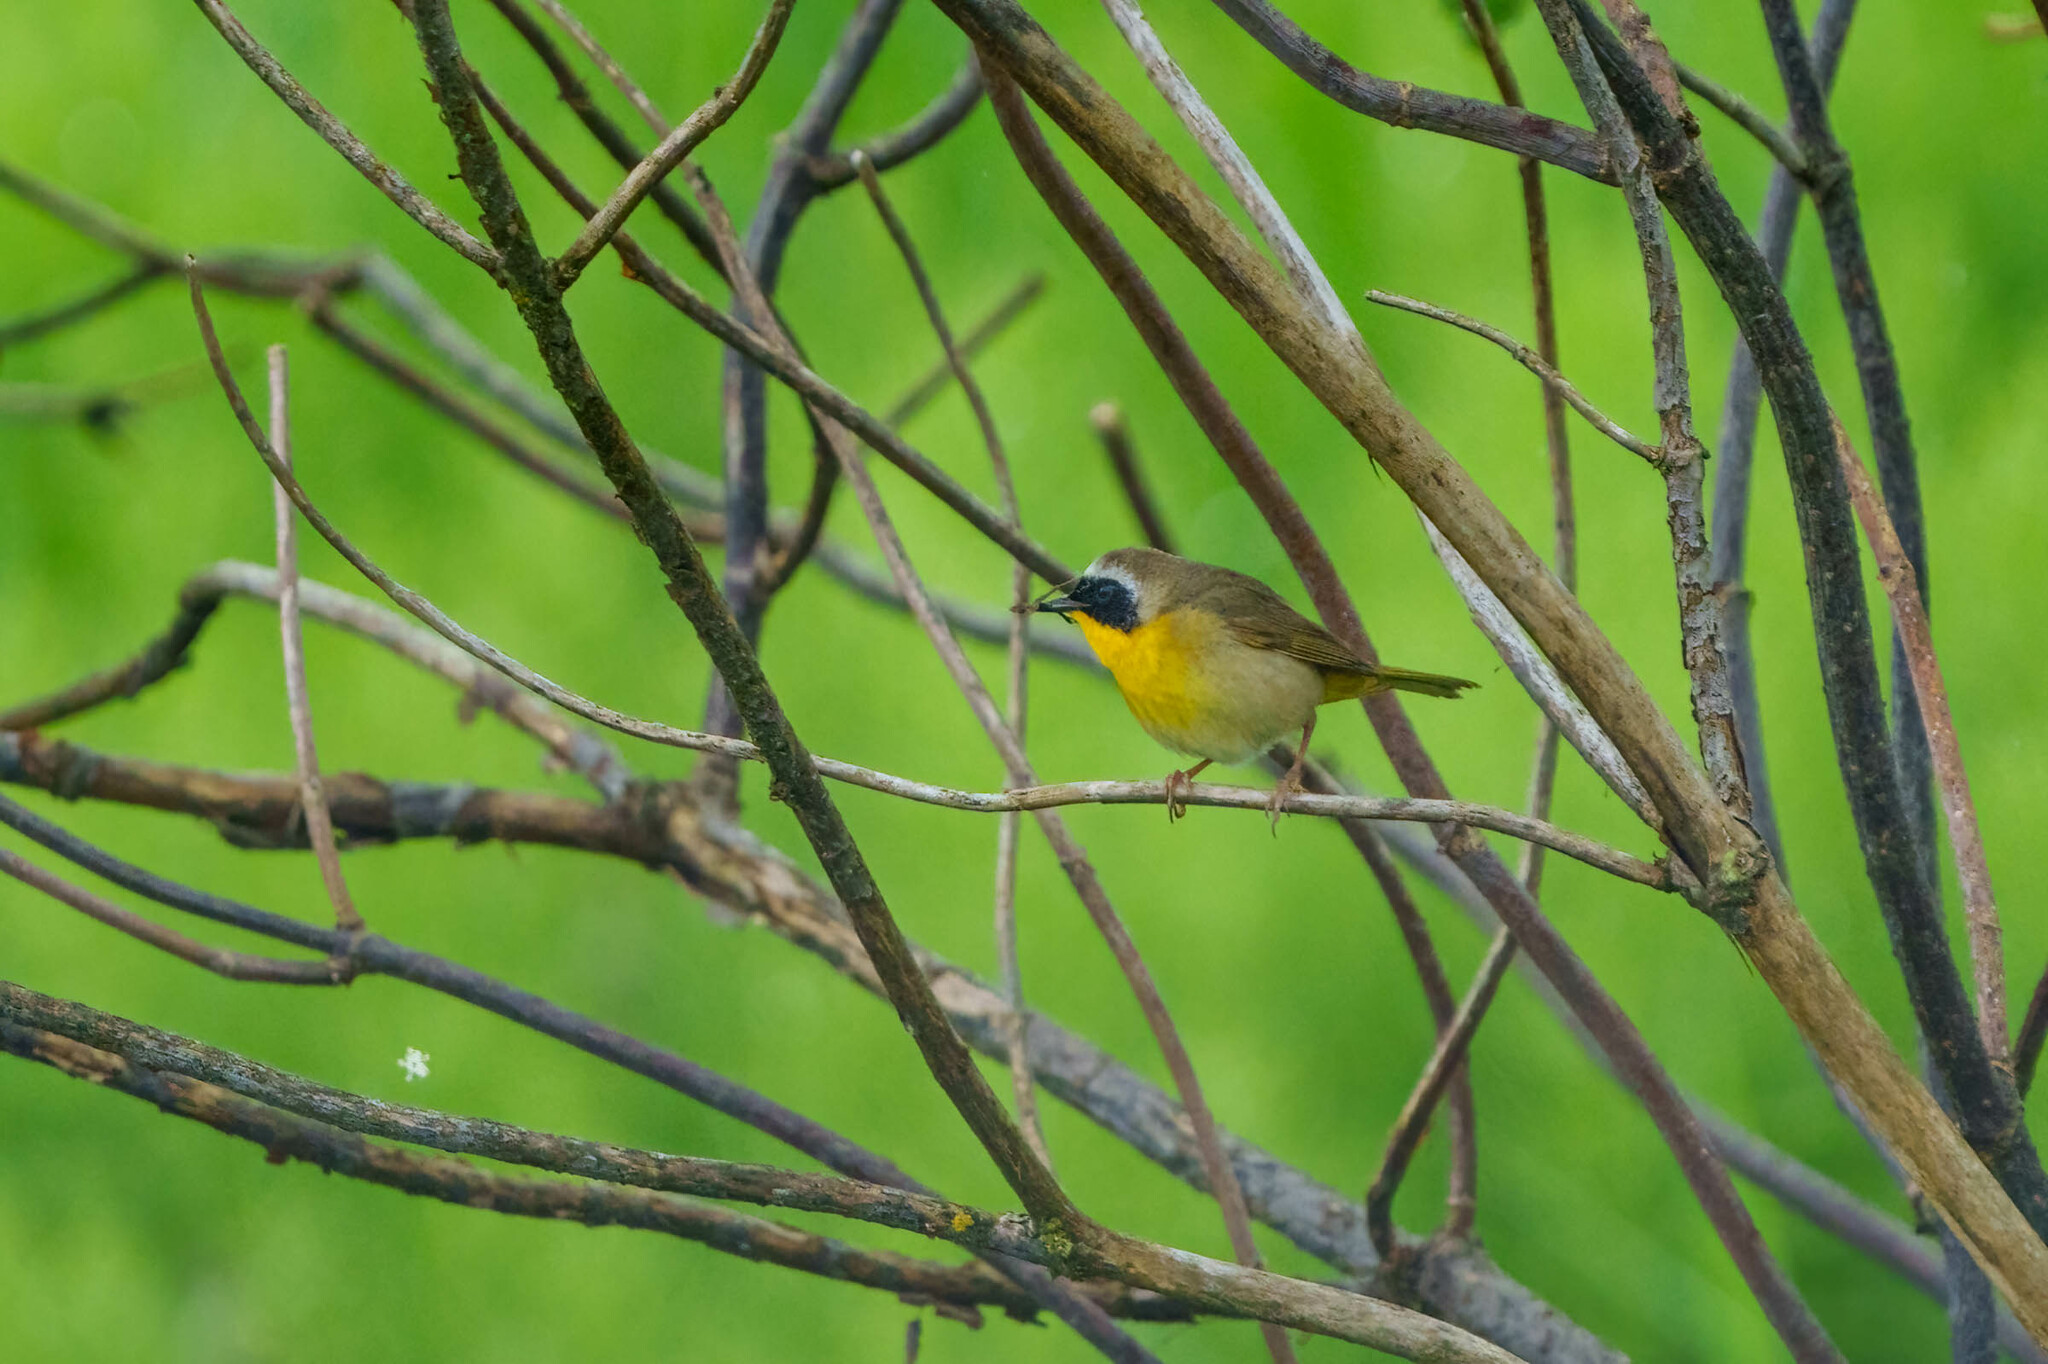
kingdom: Animalia
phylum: Chordata
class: Aves
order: Passeriformes
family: Parulidae
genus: Geothlypis
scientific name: Geothlypis trichas
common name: Common yellowthroat
